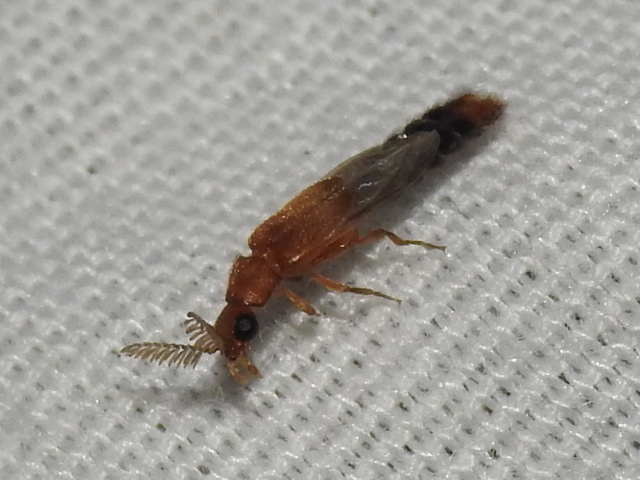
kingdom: Animalia
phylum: Arthropoda
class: Insecta
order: Coleoptera
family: Phengodidae
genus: Distremocephalus
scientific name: Distremocephalus texanus
